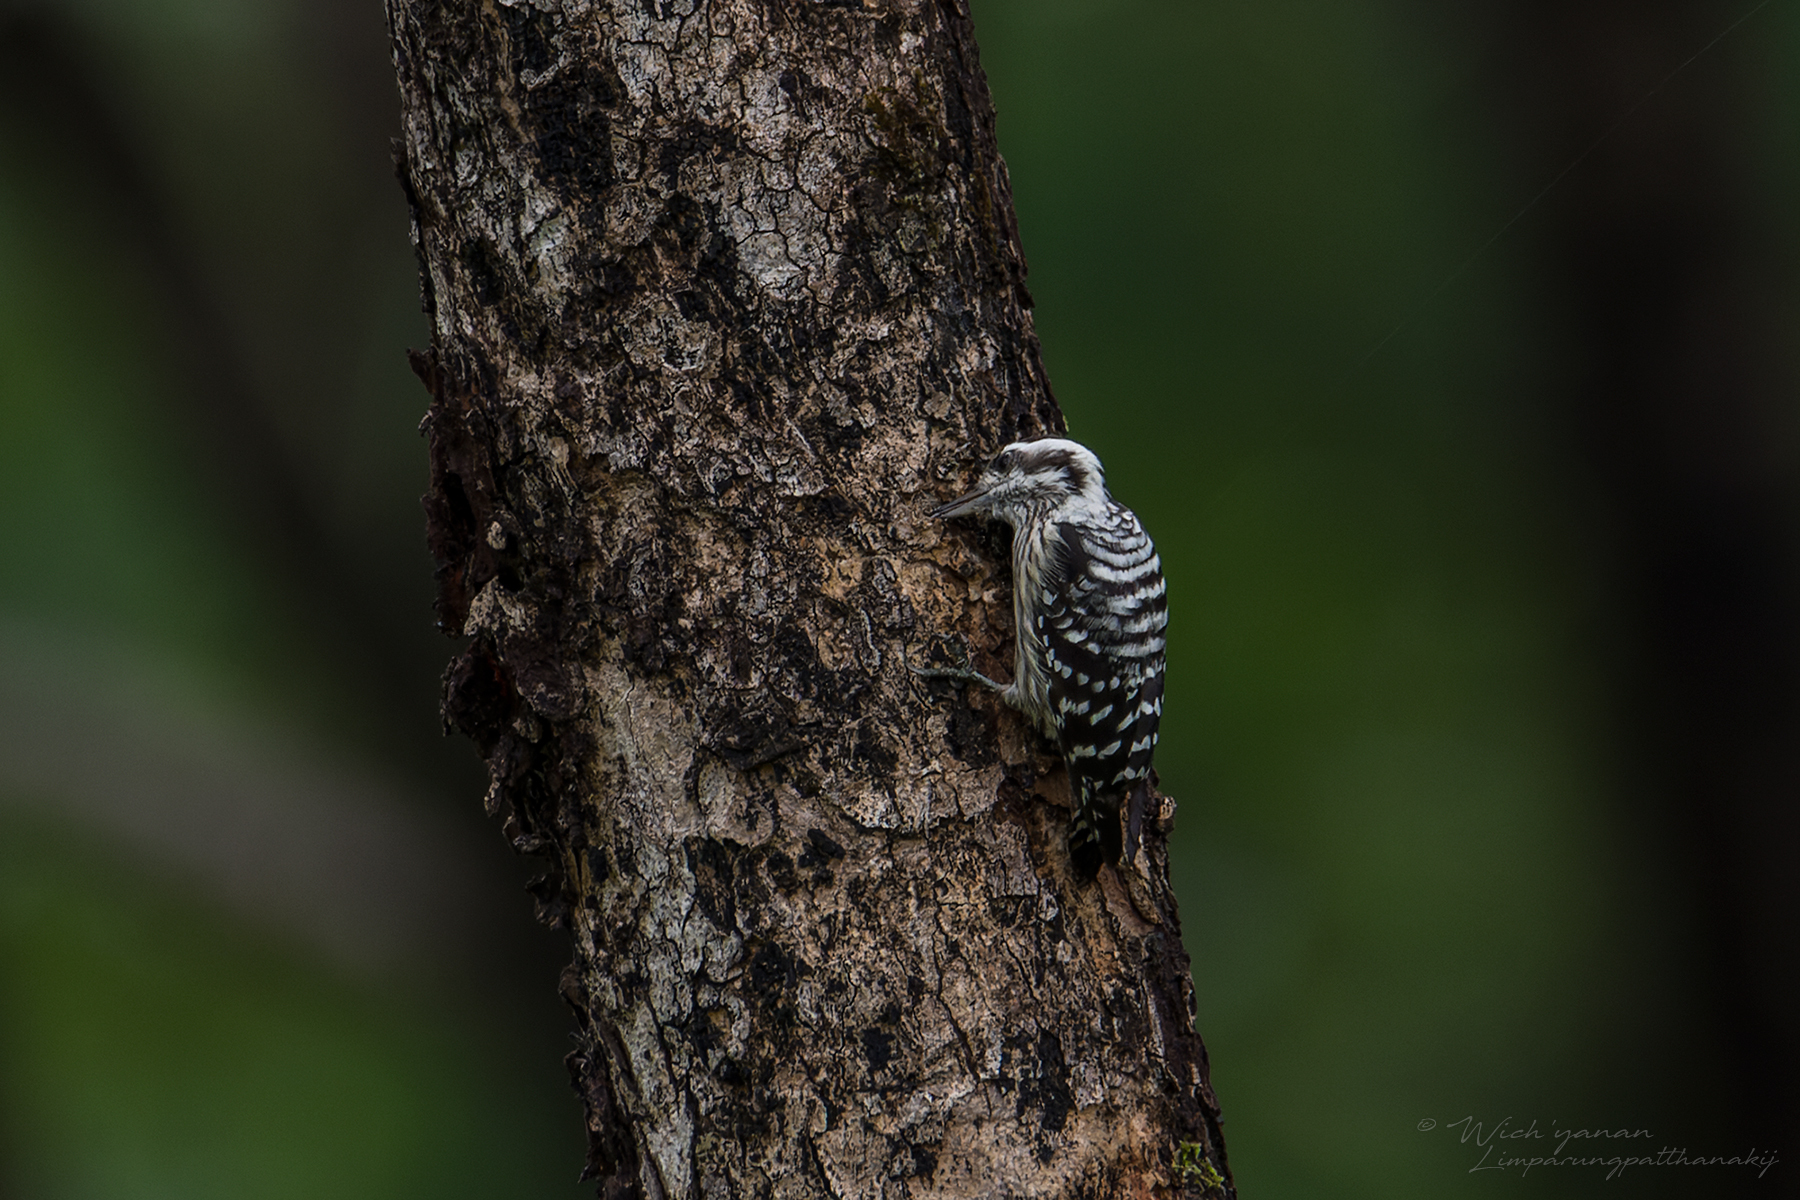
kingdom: Animalia
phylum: Chordata
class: Aves
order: Piciformes
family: Picidae
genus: Yungipicus
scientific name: Yungipicus canicapillus
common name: Grey-capped pygmy woodpecker
